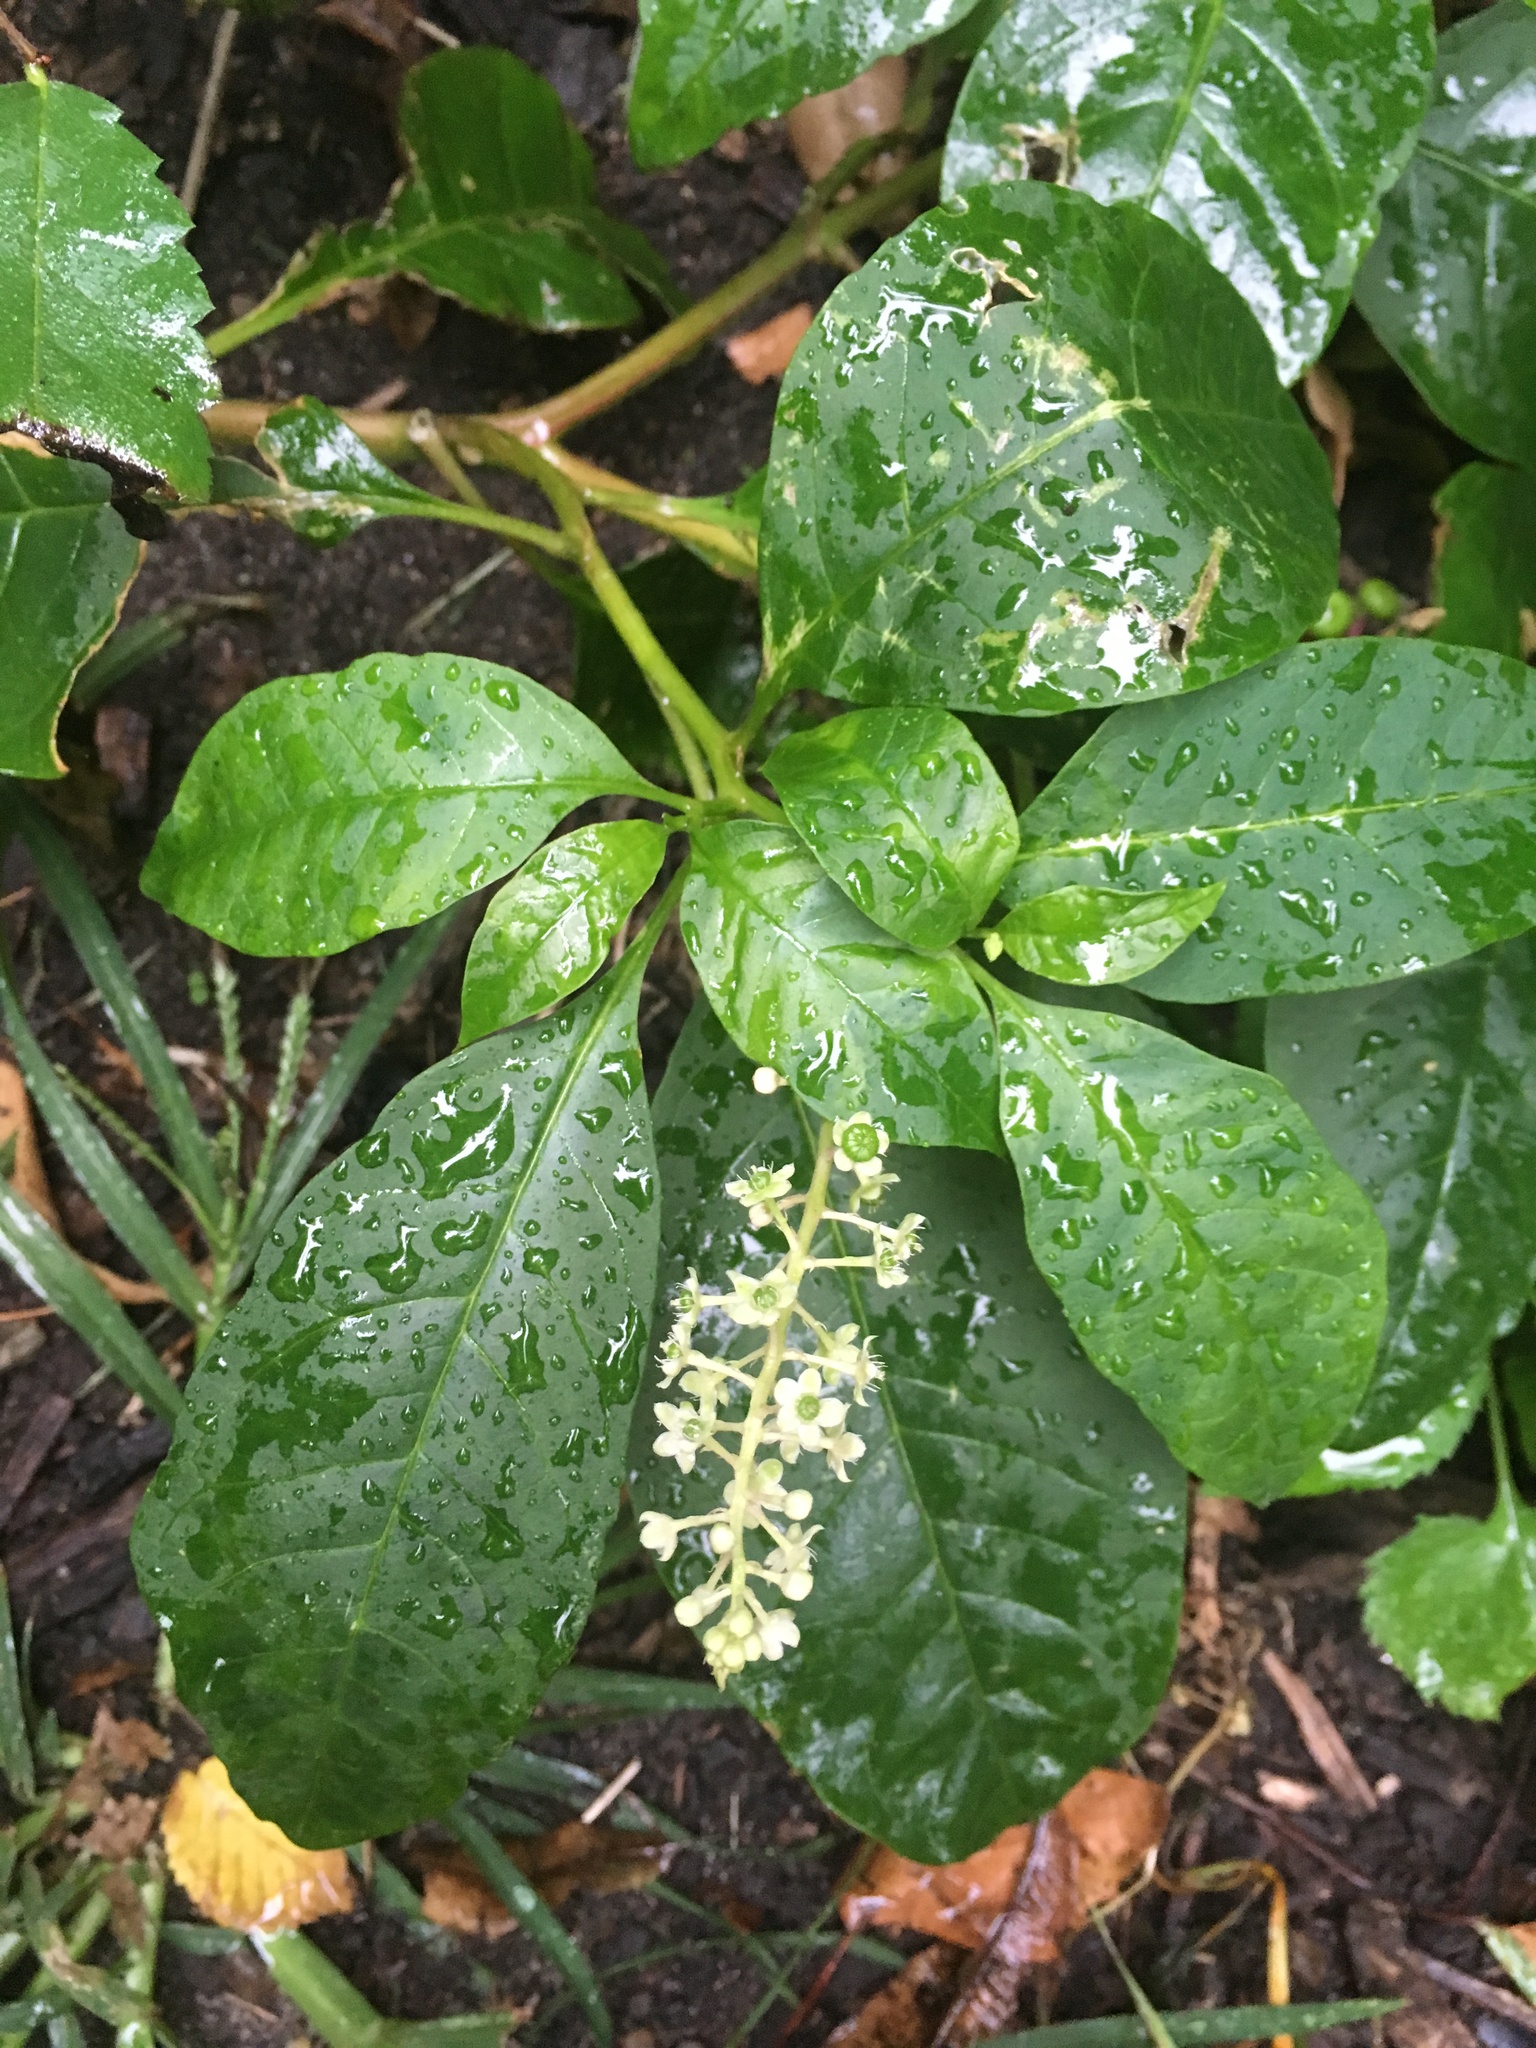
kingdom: Plantae
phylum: Tracheophyta
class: Magnoliopsida
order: Caryophyllales
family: Phytolaccaceae
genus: Phytolacca
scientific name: Phytolacca americana
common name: American pokeweed
